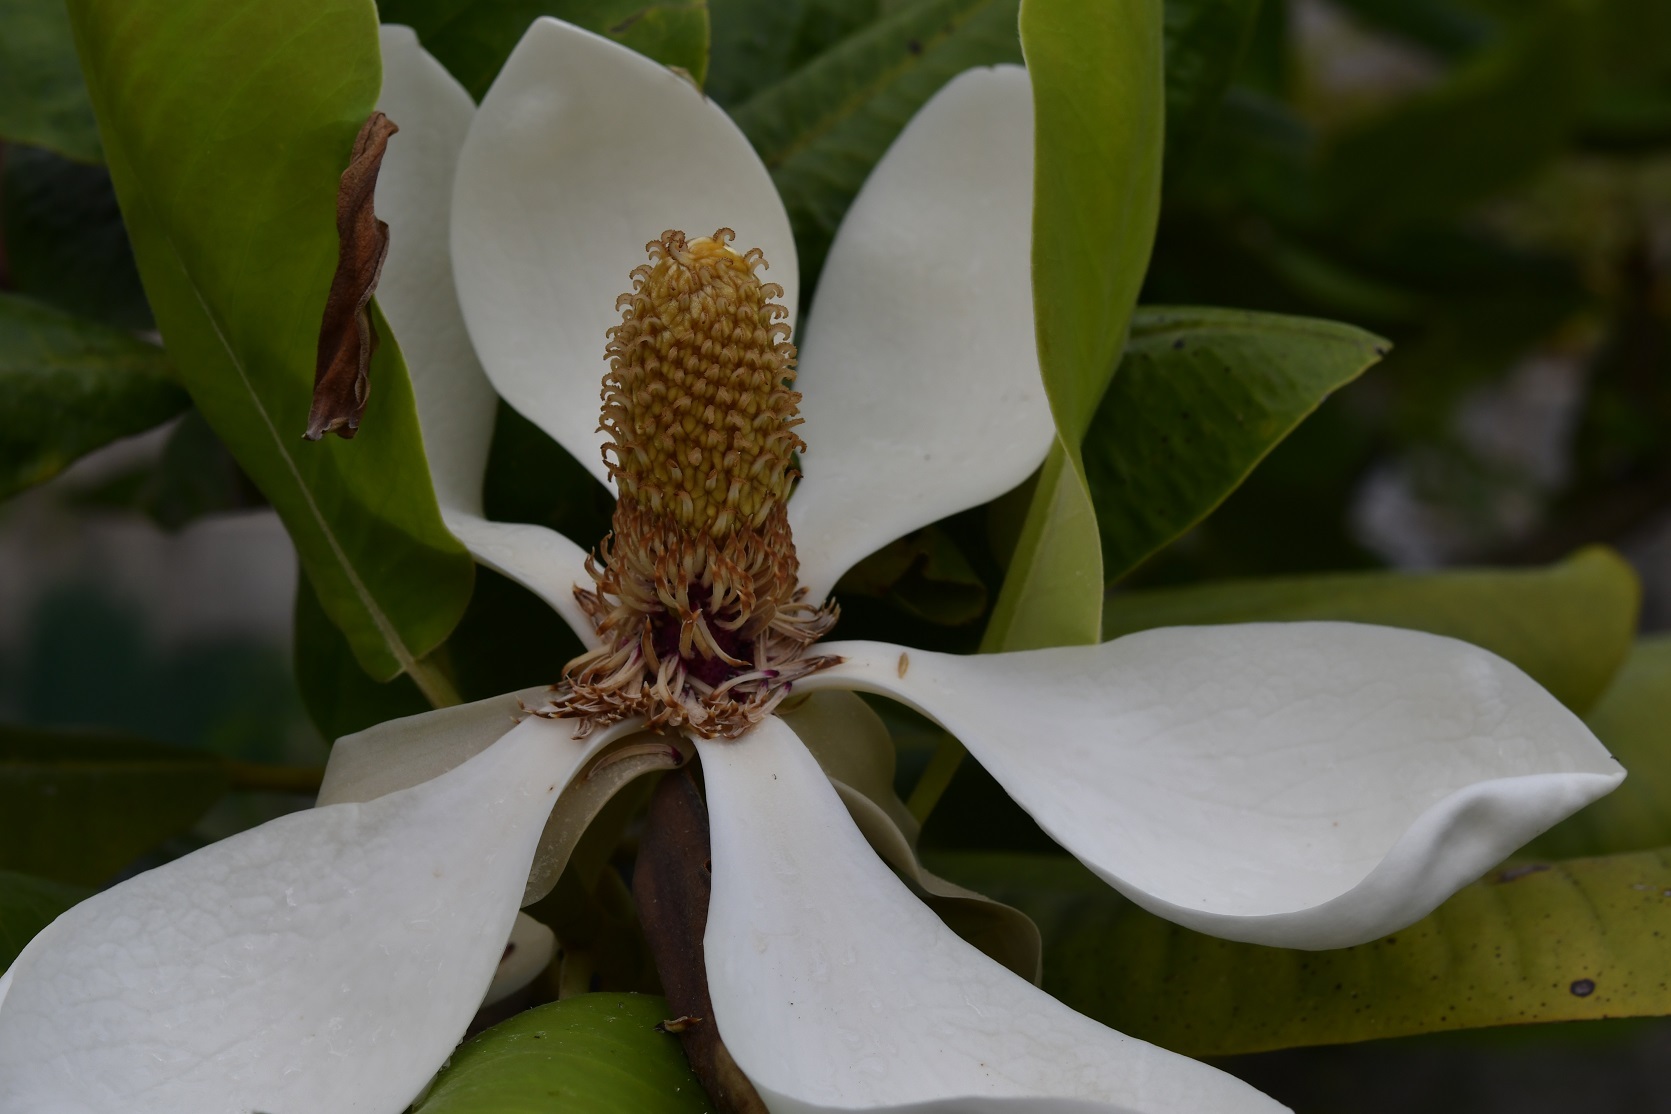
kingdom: Plantae
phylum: Tracheophyta
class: Magnoliopsida
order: Magnoliales
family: Magnoliaceae
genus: Magnolia
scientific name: Magnolia sharpii
